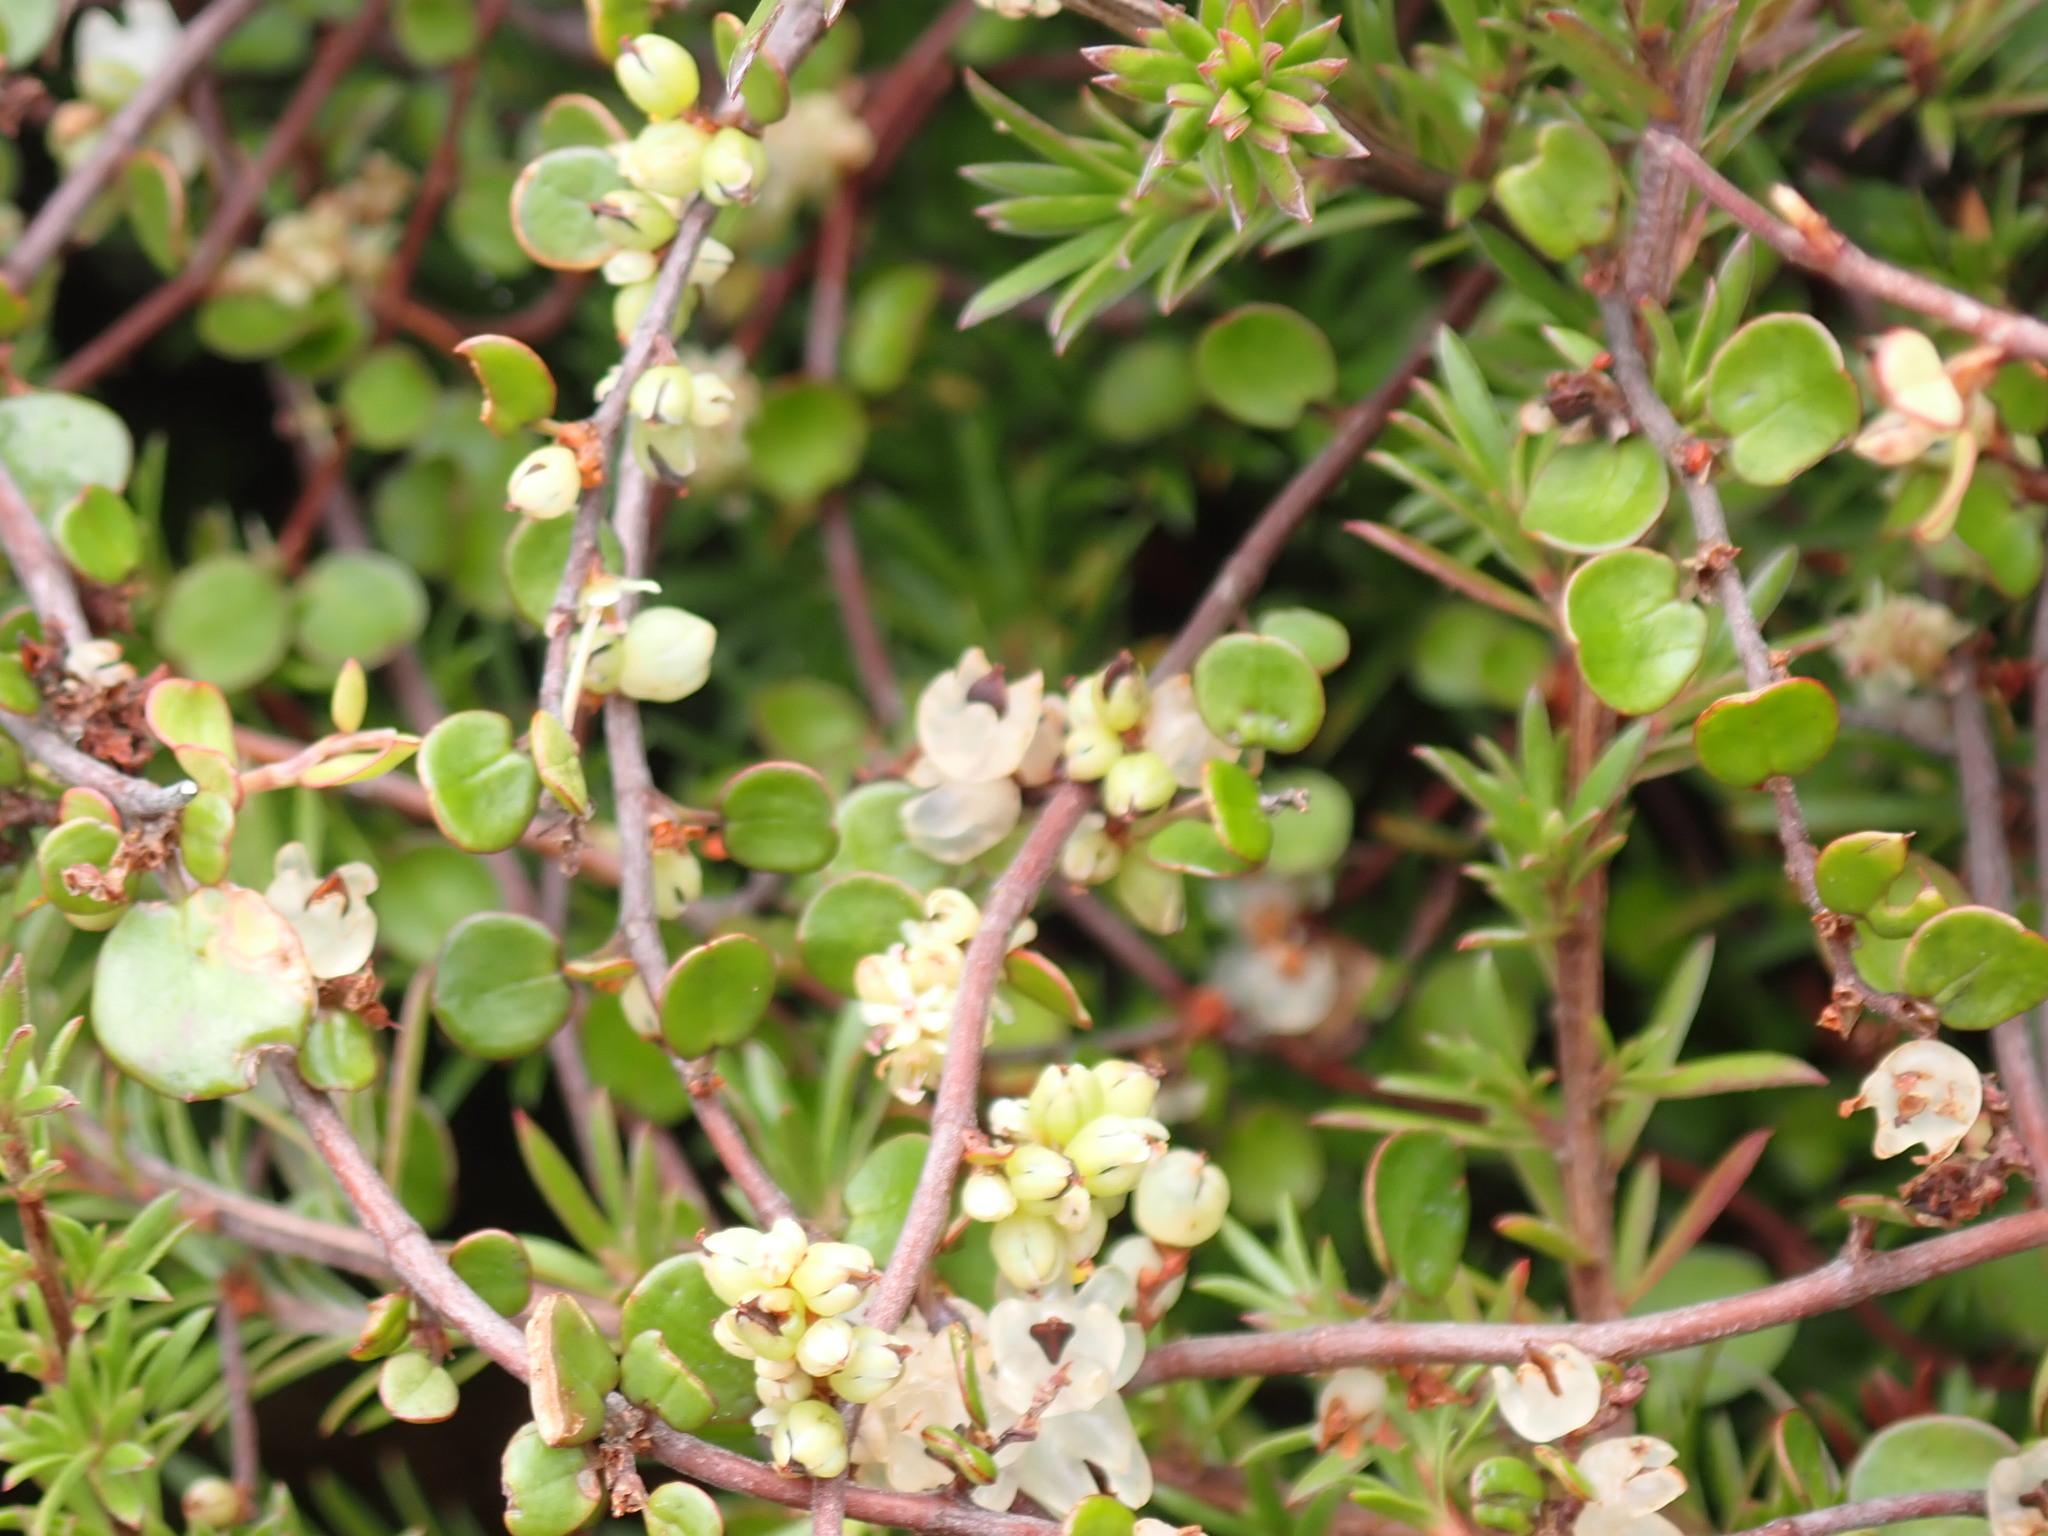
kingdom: Plantae
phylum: Tracheophyta
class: Magnoliopsida
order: Caryophyllales
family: Polygonaceae
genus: Muehlenbeckia
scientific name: Muehlenbeckia complexa
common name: Wireplant
